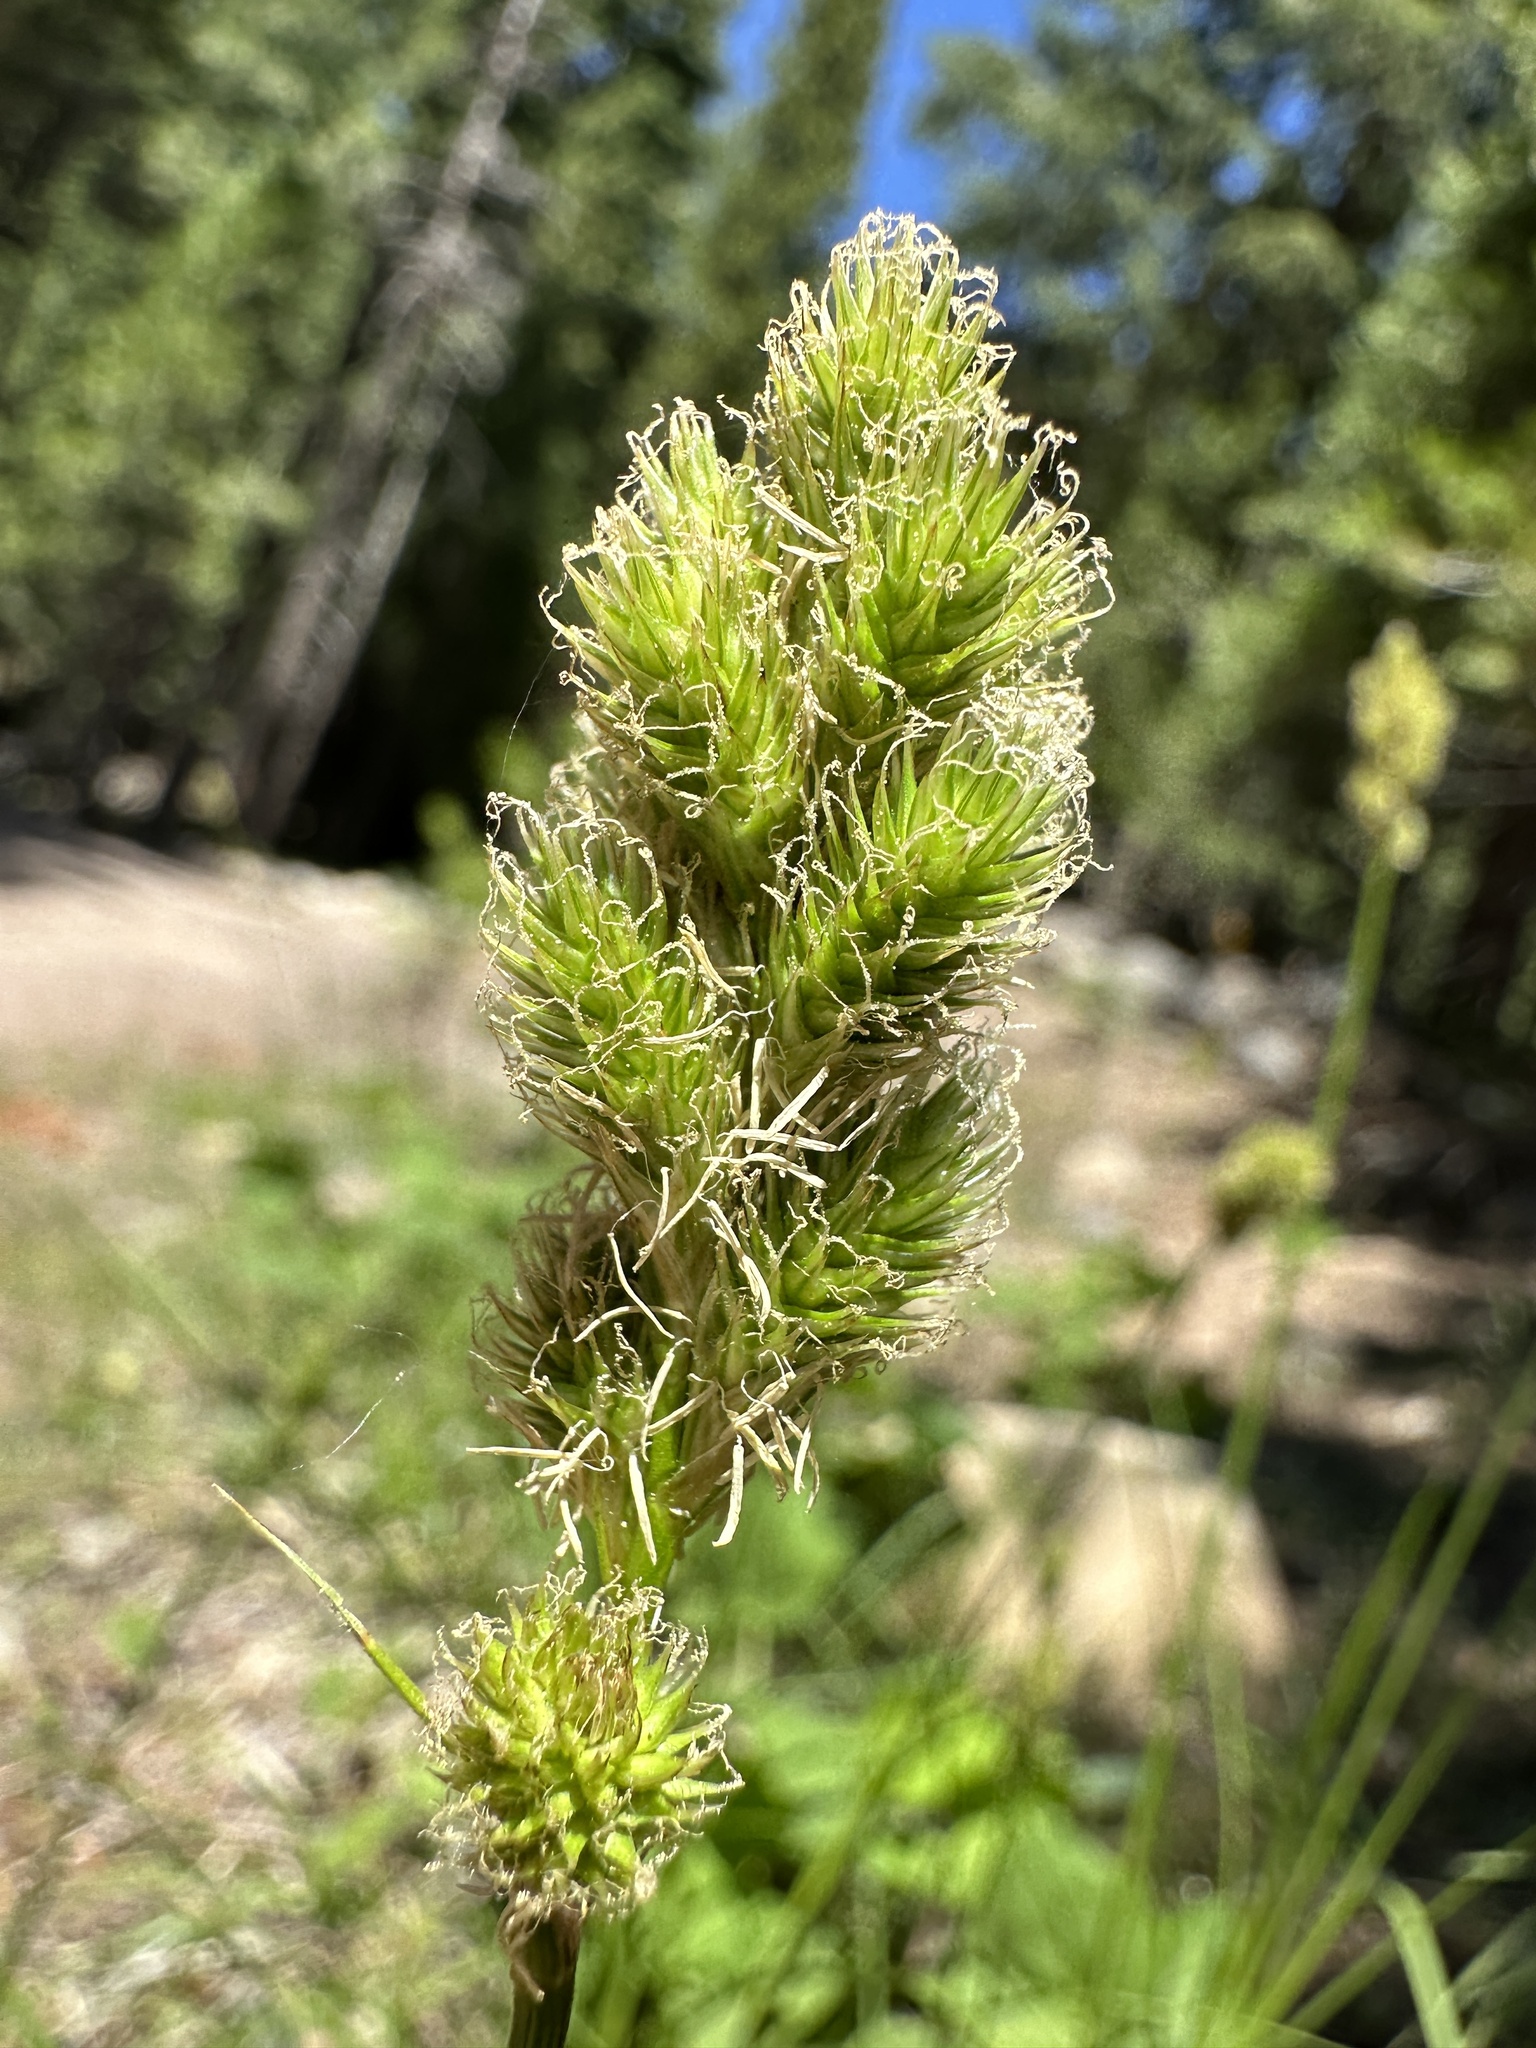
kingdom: Plantae
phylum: Tracheophyta
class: Liliopsida
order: Poales
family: Cyperaceae
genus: Carex
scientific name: Carex fracta
